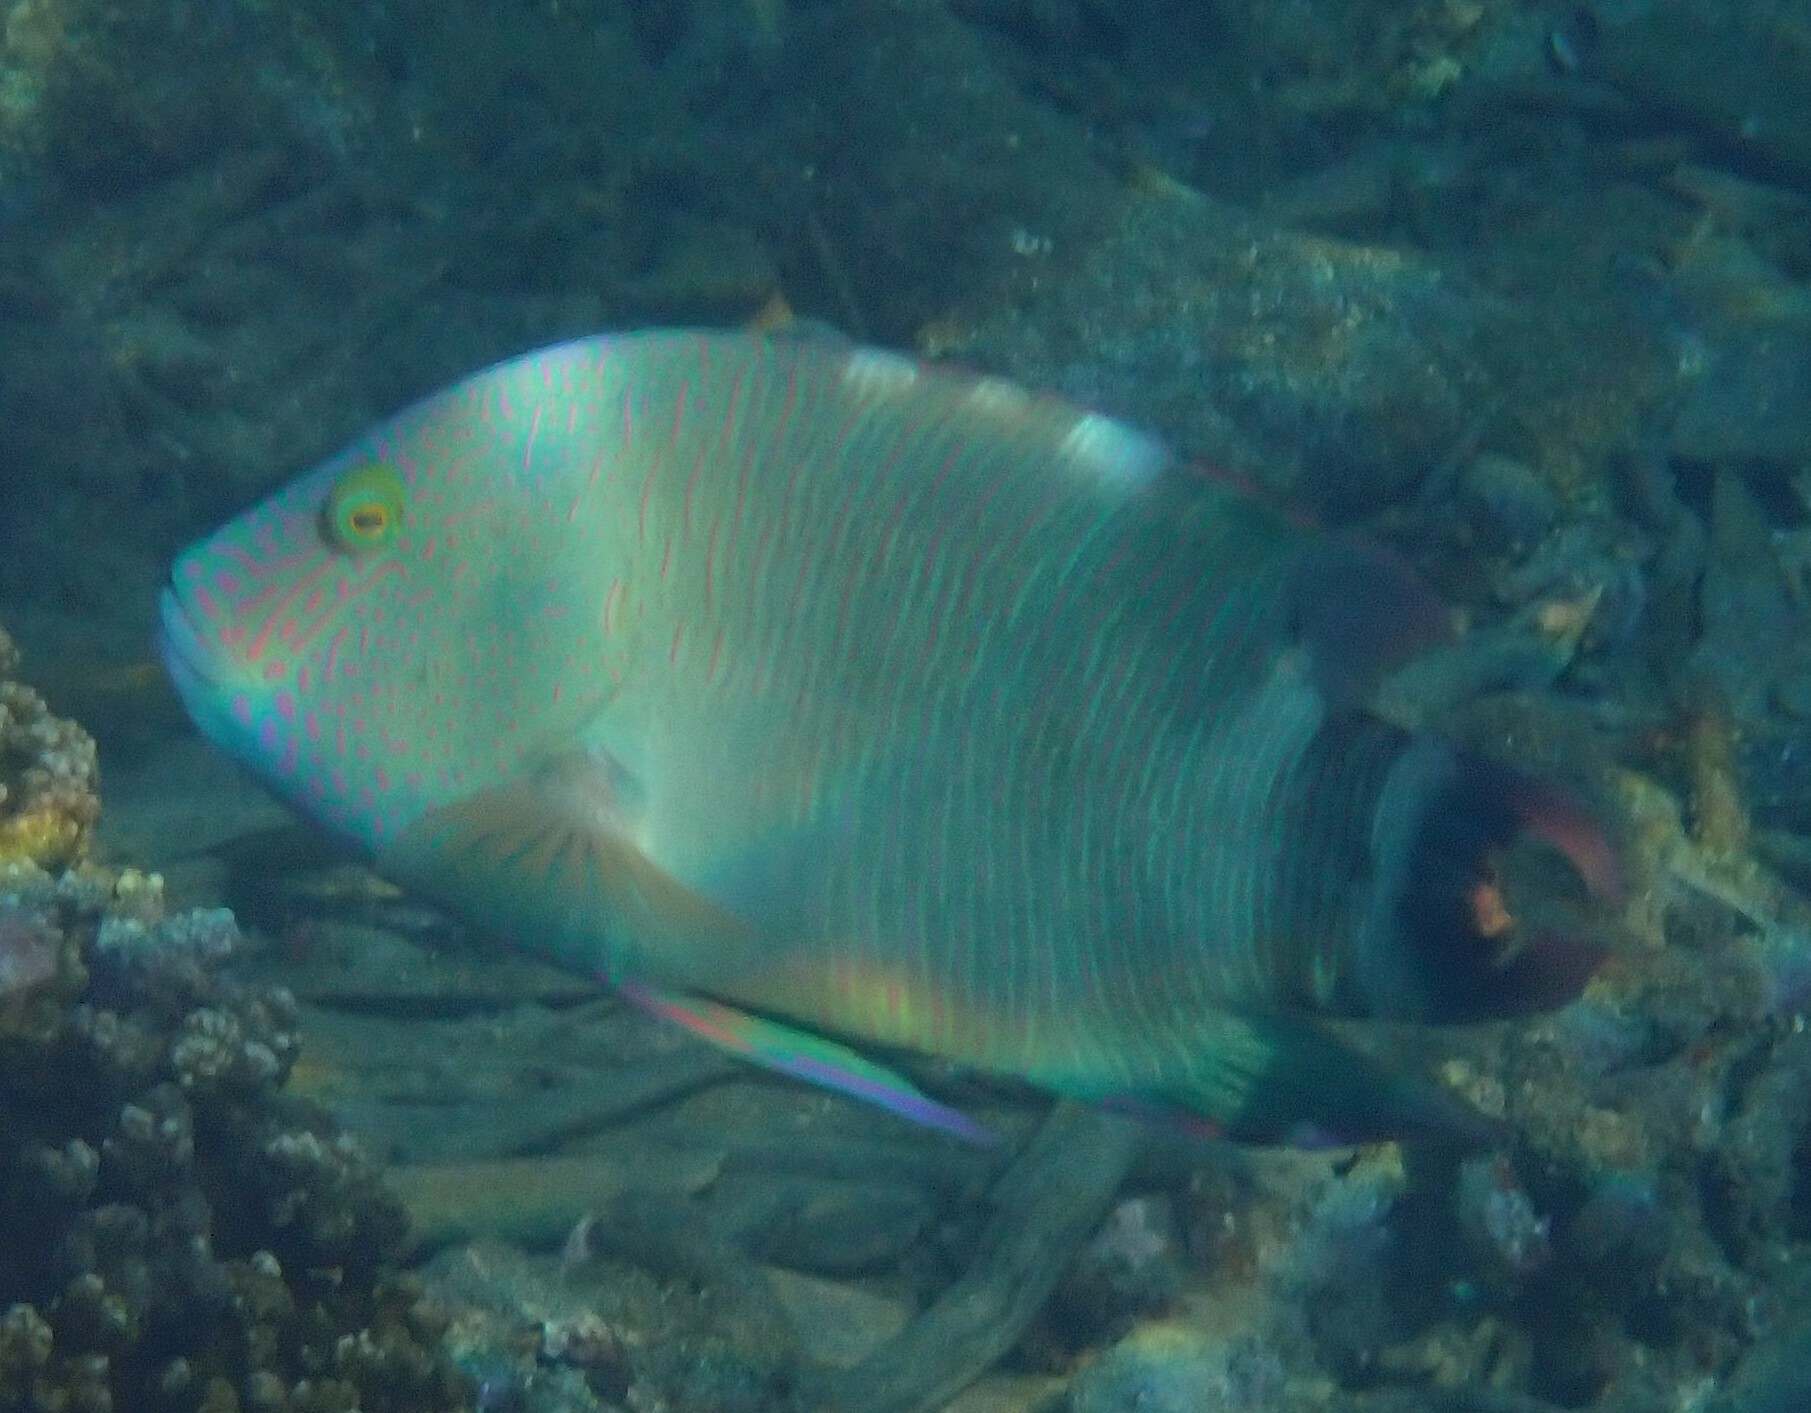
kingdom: Animalia
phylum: Chordata
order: Perciformes
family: Labridae
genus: Cheilinus
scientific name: Cheilinus trilobatus
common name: Tripletail maori wrasse
